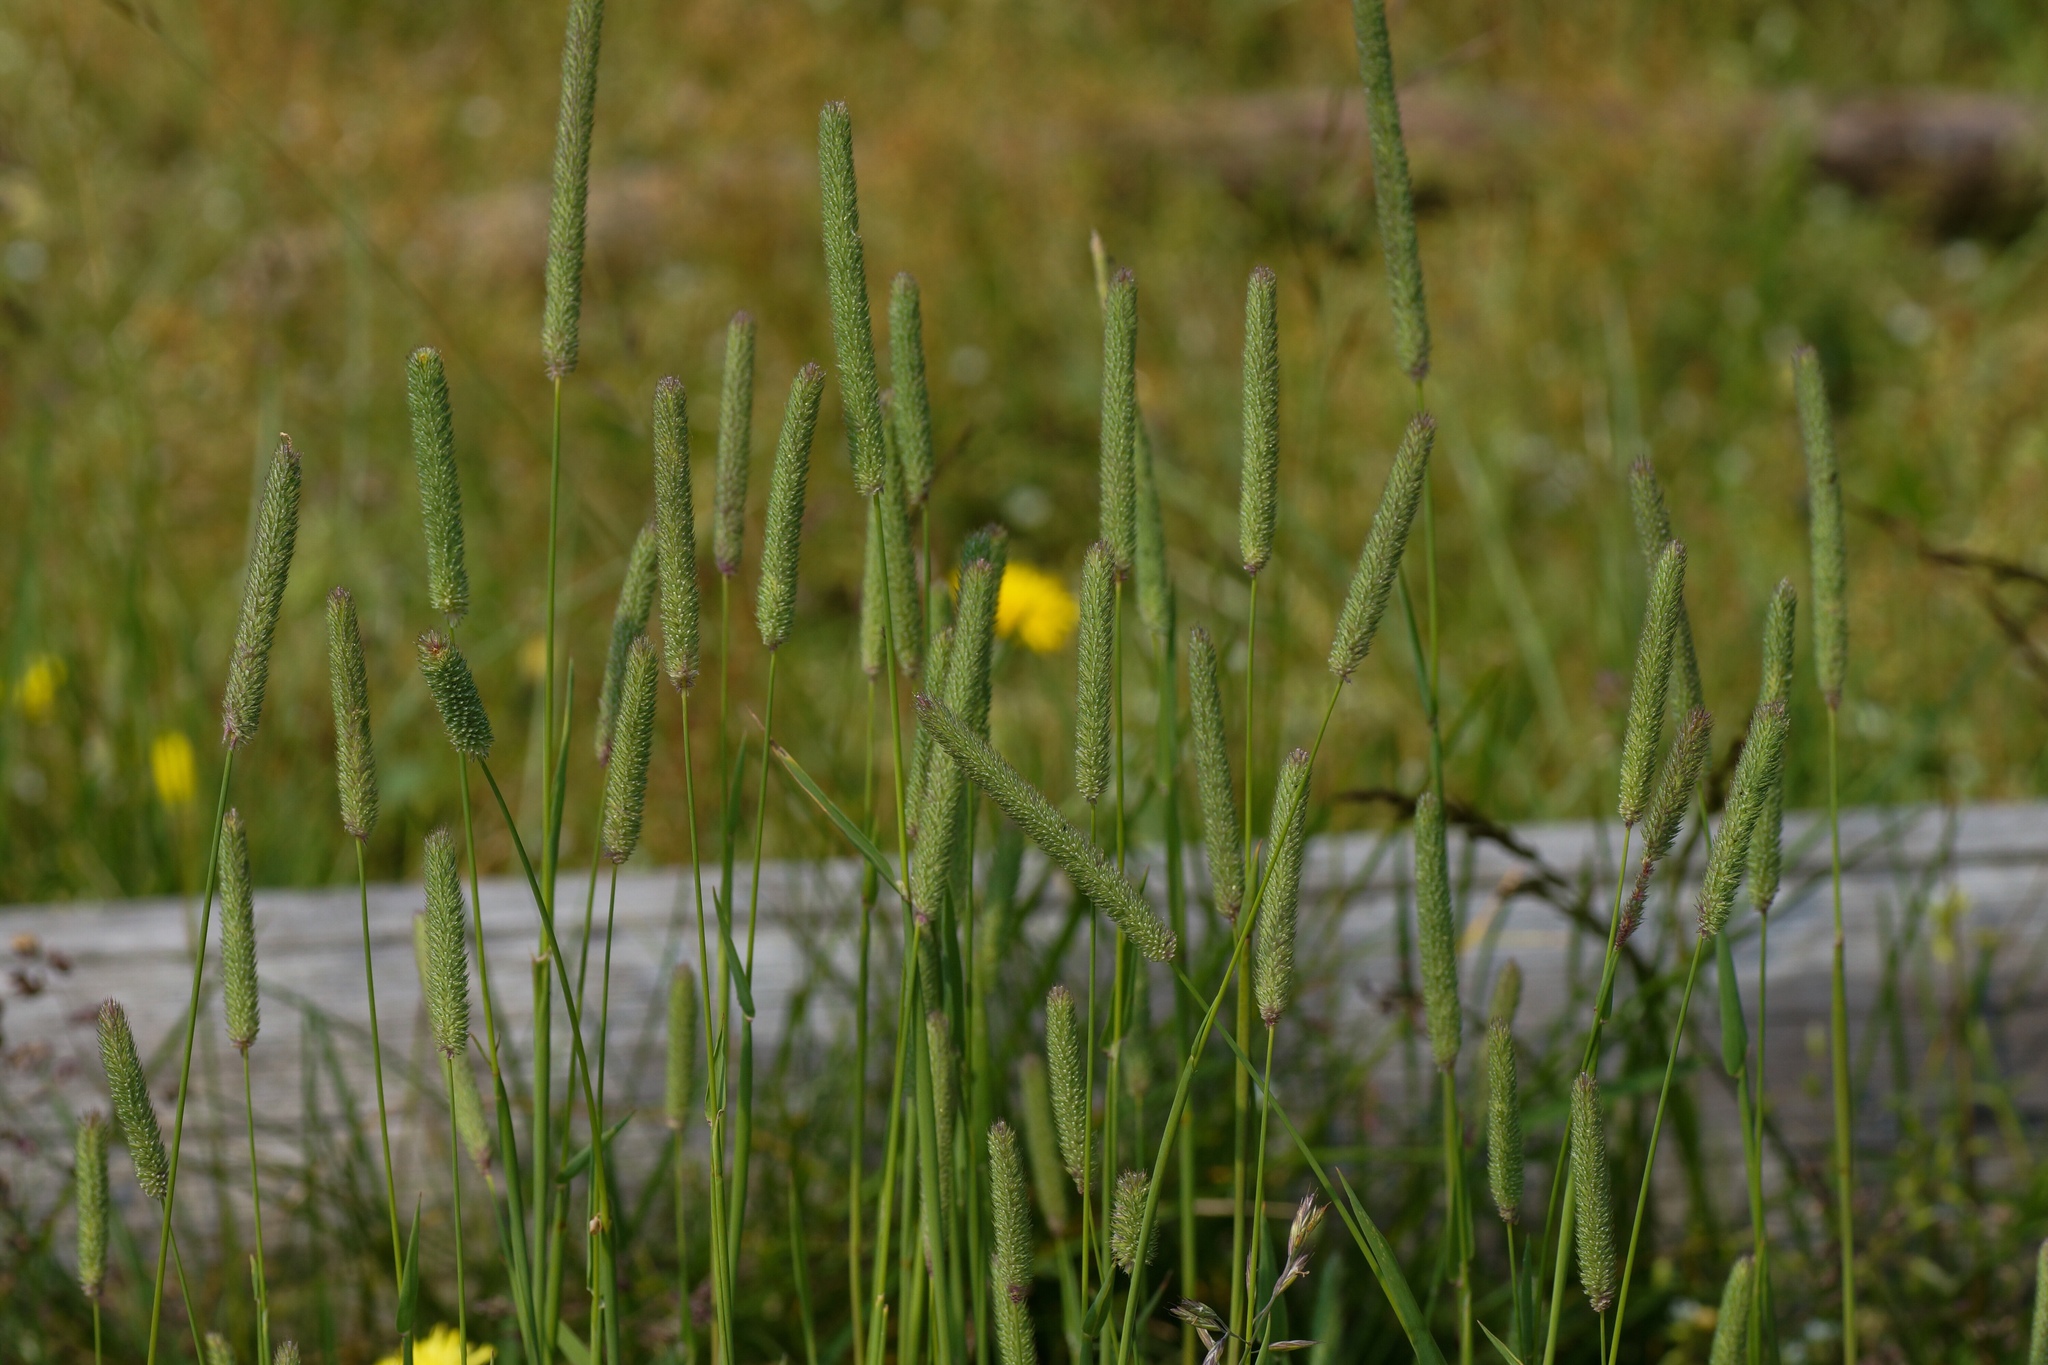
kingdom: Plantae
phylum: Tracheophyta
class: Liliopsida
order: Poales
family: Poaceae
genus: Phleum
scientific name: Phleum pratense
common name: Timothy grass
